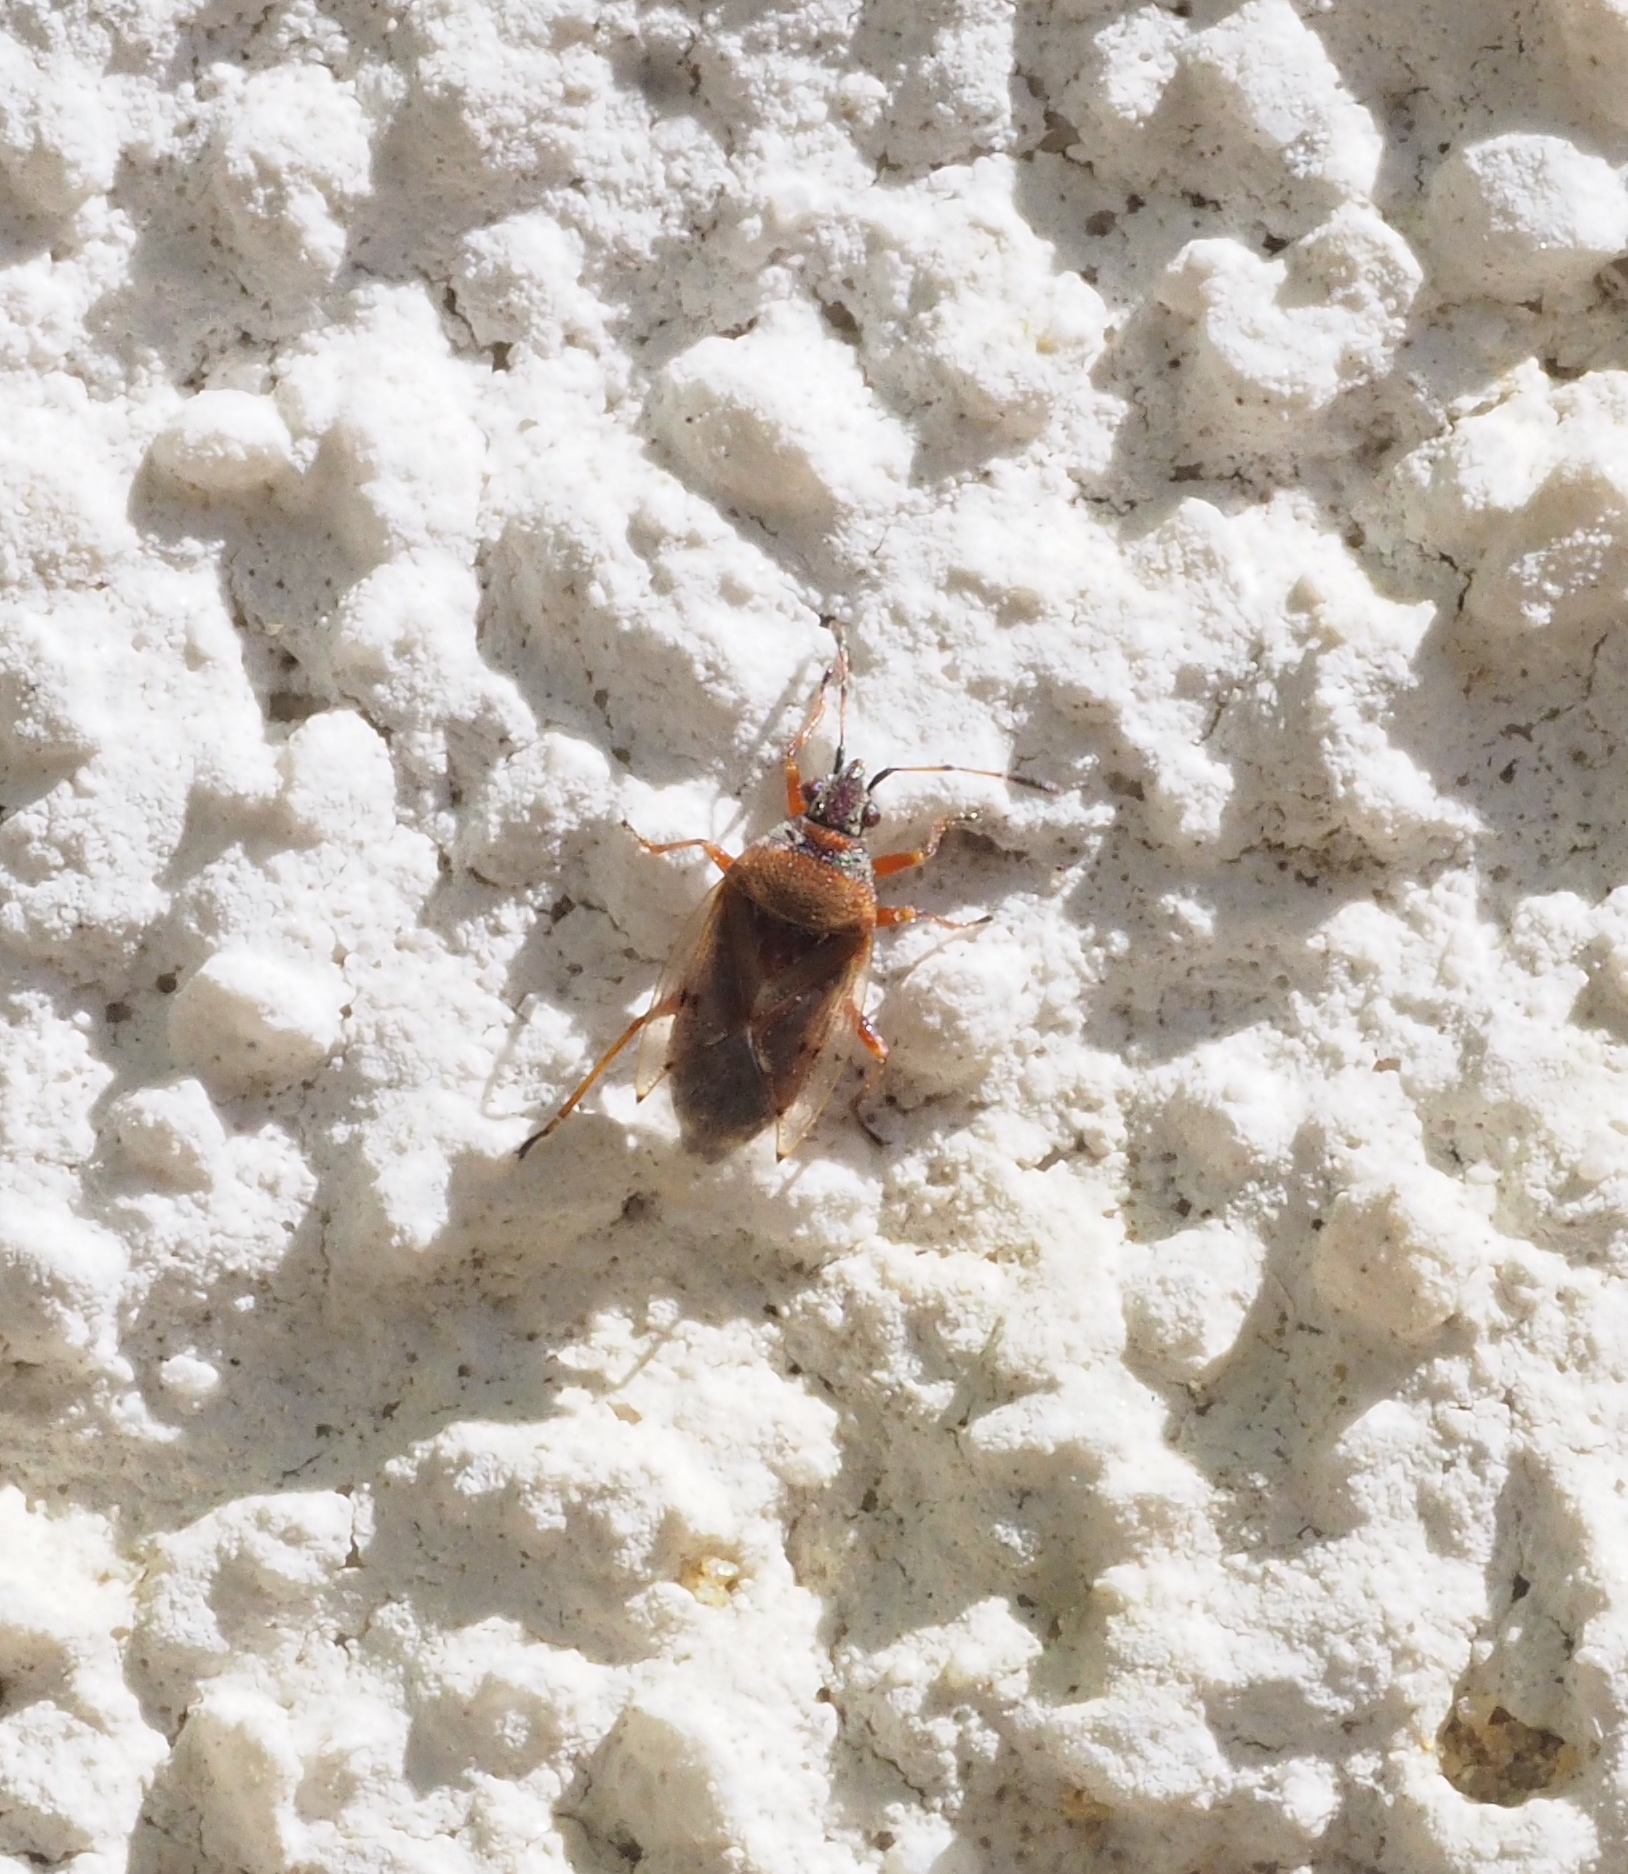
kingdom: Animalia
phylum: Arthropoda
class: Insecta
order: Hemiptera
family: Lygaeidae
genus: Kleidocerys
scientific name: Kleidocerys resedae
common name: Birch catkin bug
